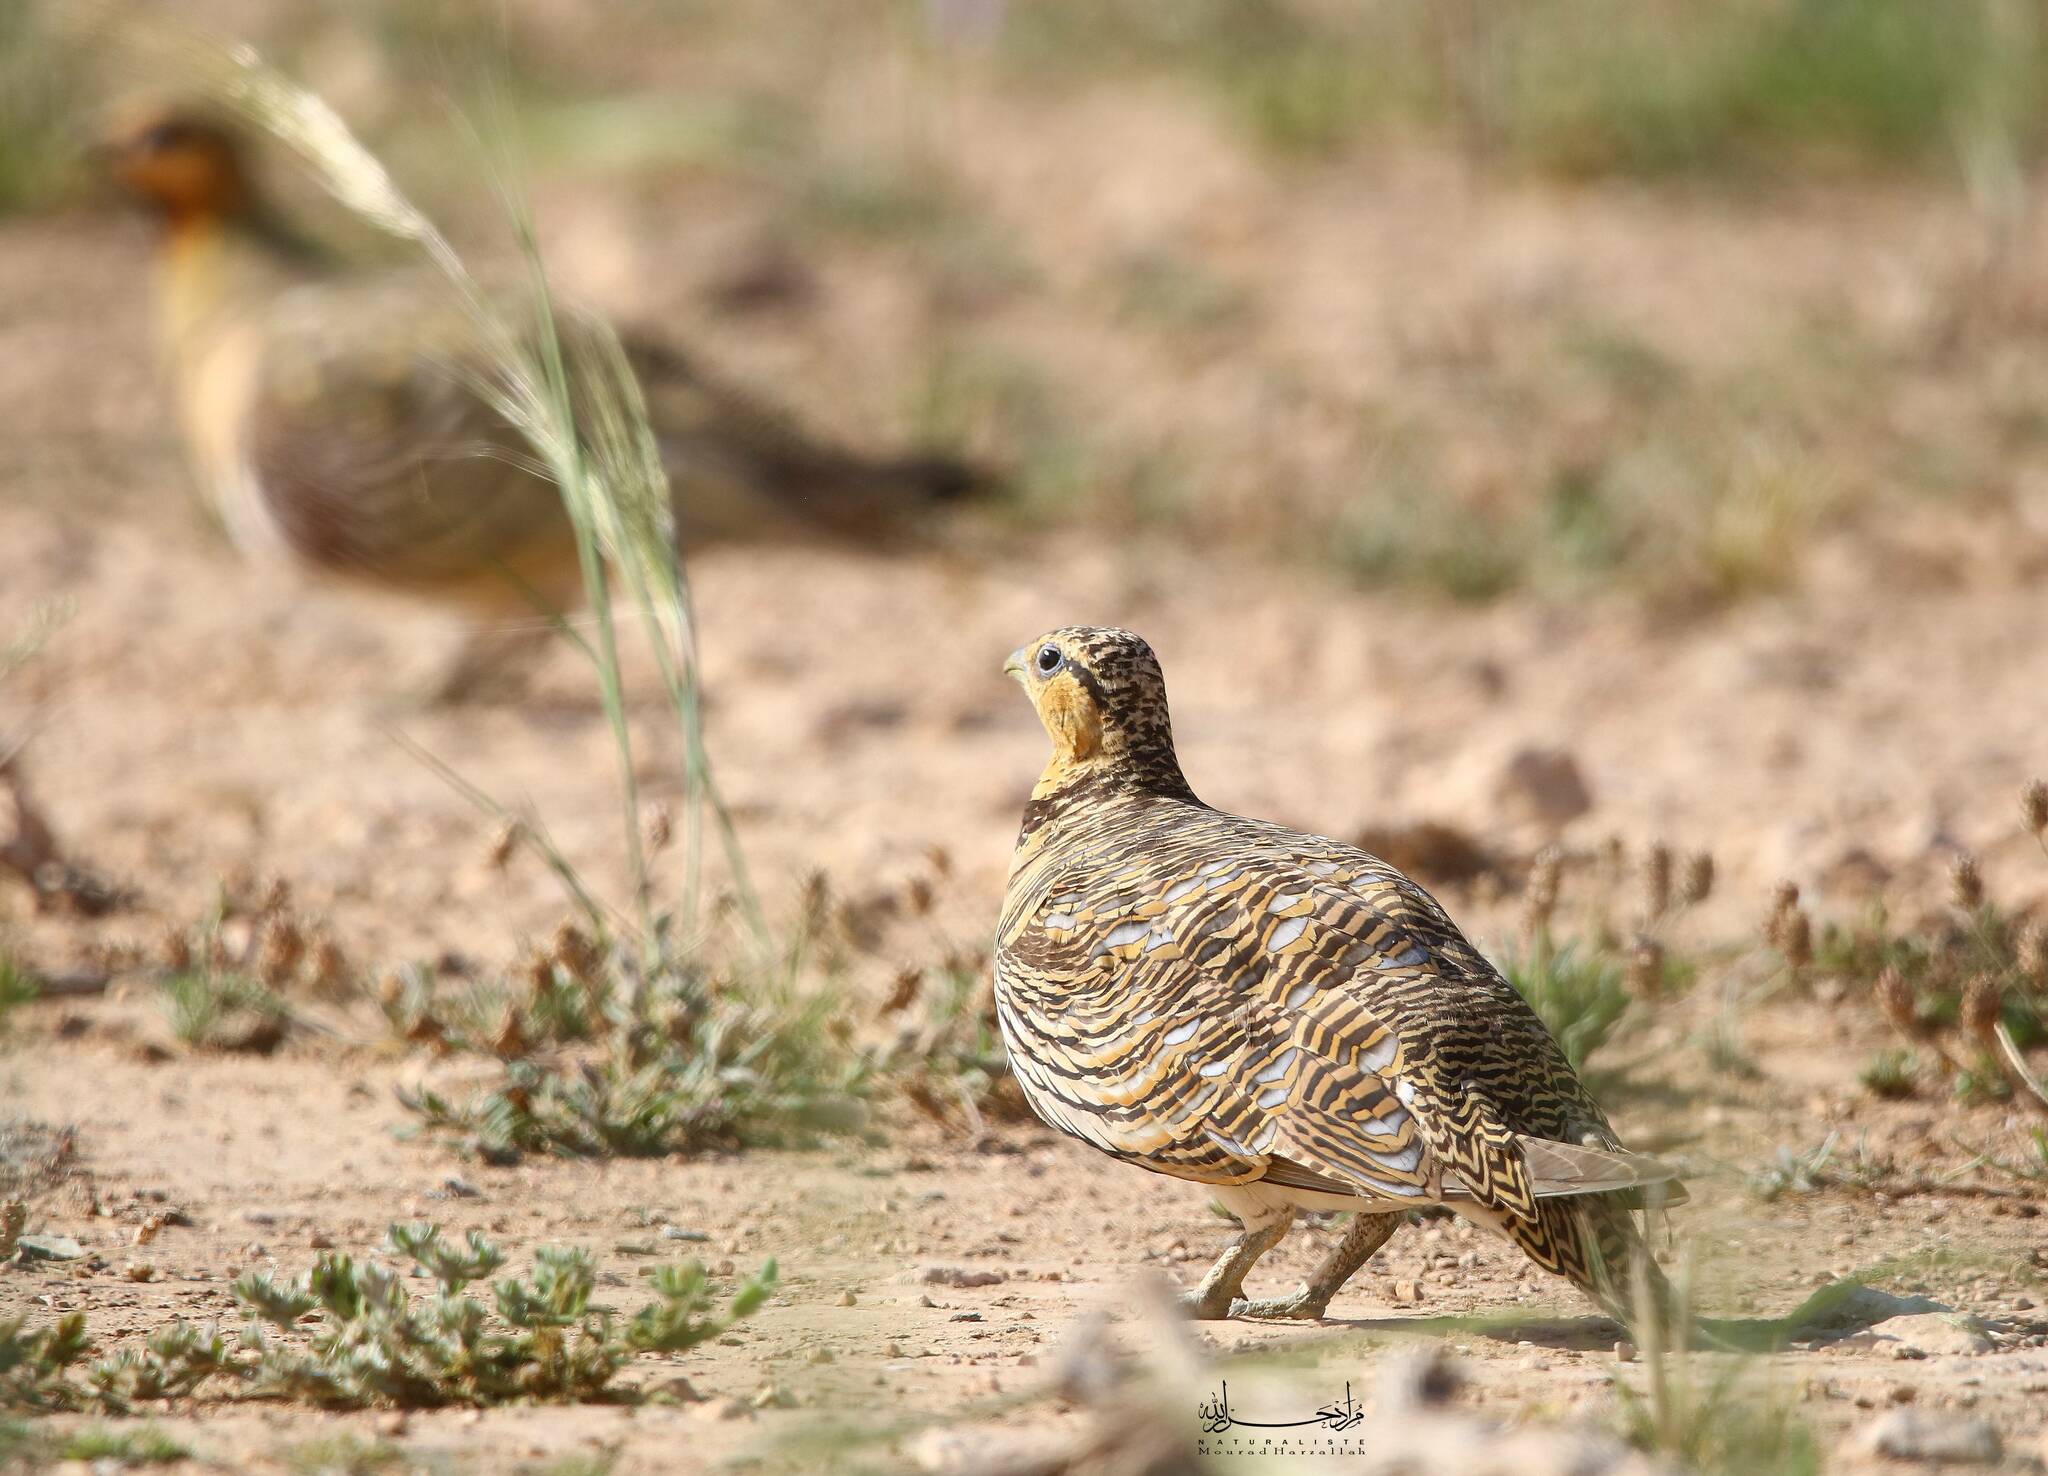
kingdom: Animalia
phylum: Chordata
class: Aves
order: Pteroclidiformes
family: Pteroclididae
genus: Pterocles
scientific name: Pterocles alchata
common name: Pin-tailed sandgrouse
